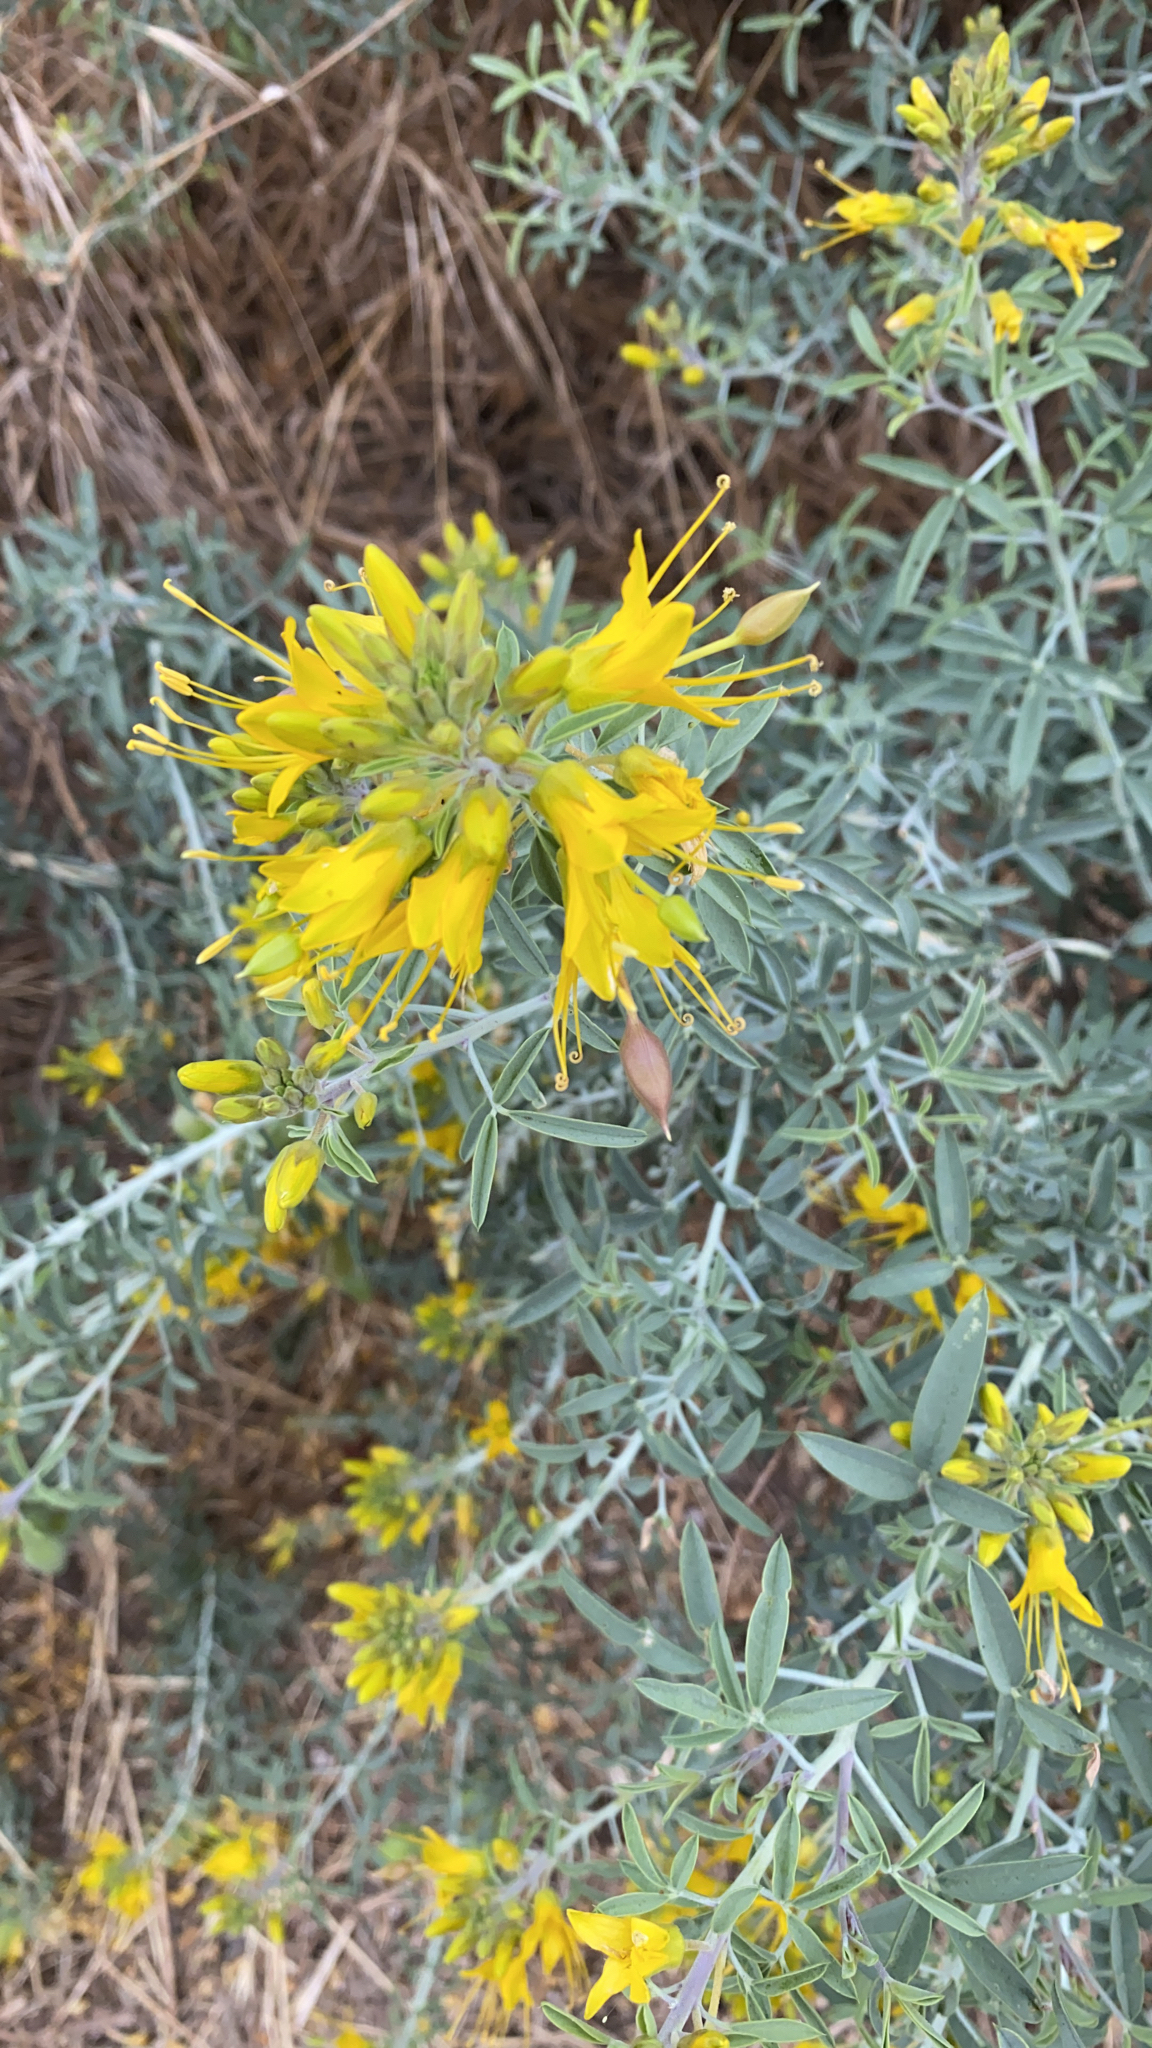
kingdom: Plantae
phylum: Tracheophyta
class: Magnoliopsida
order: Brassicales
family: Cleomaceae
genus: Cleomella
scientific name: Cleomella arborea
